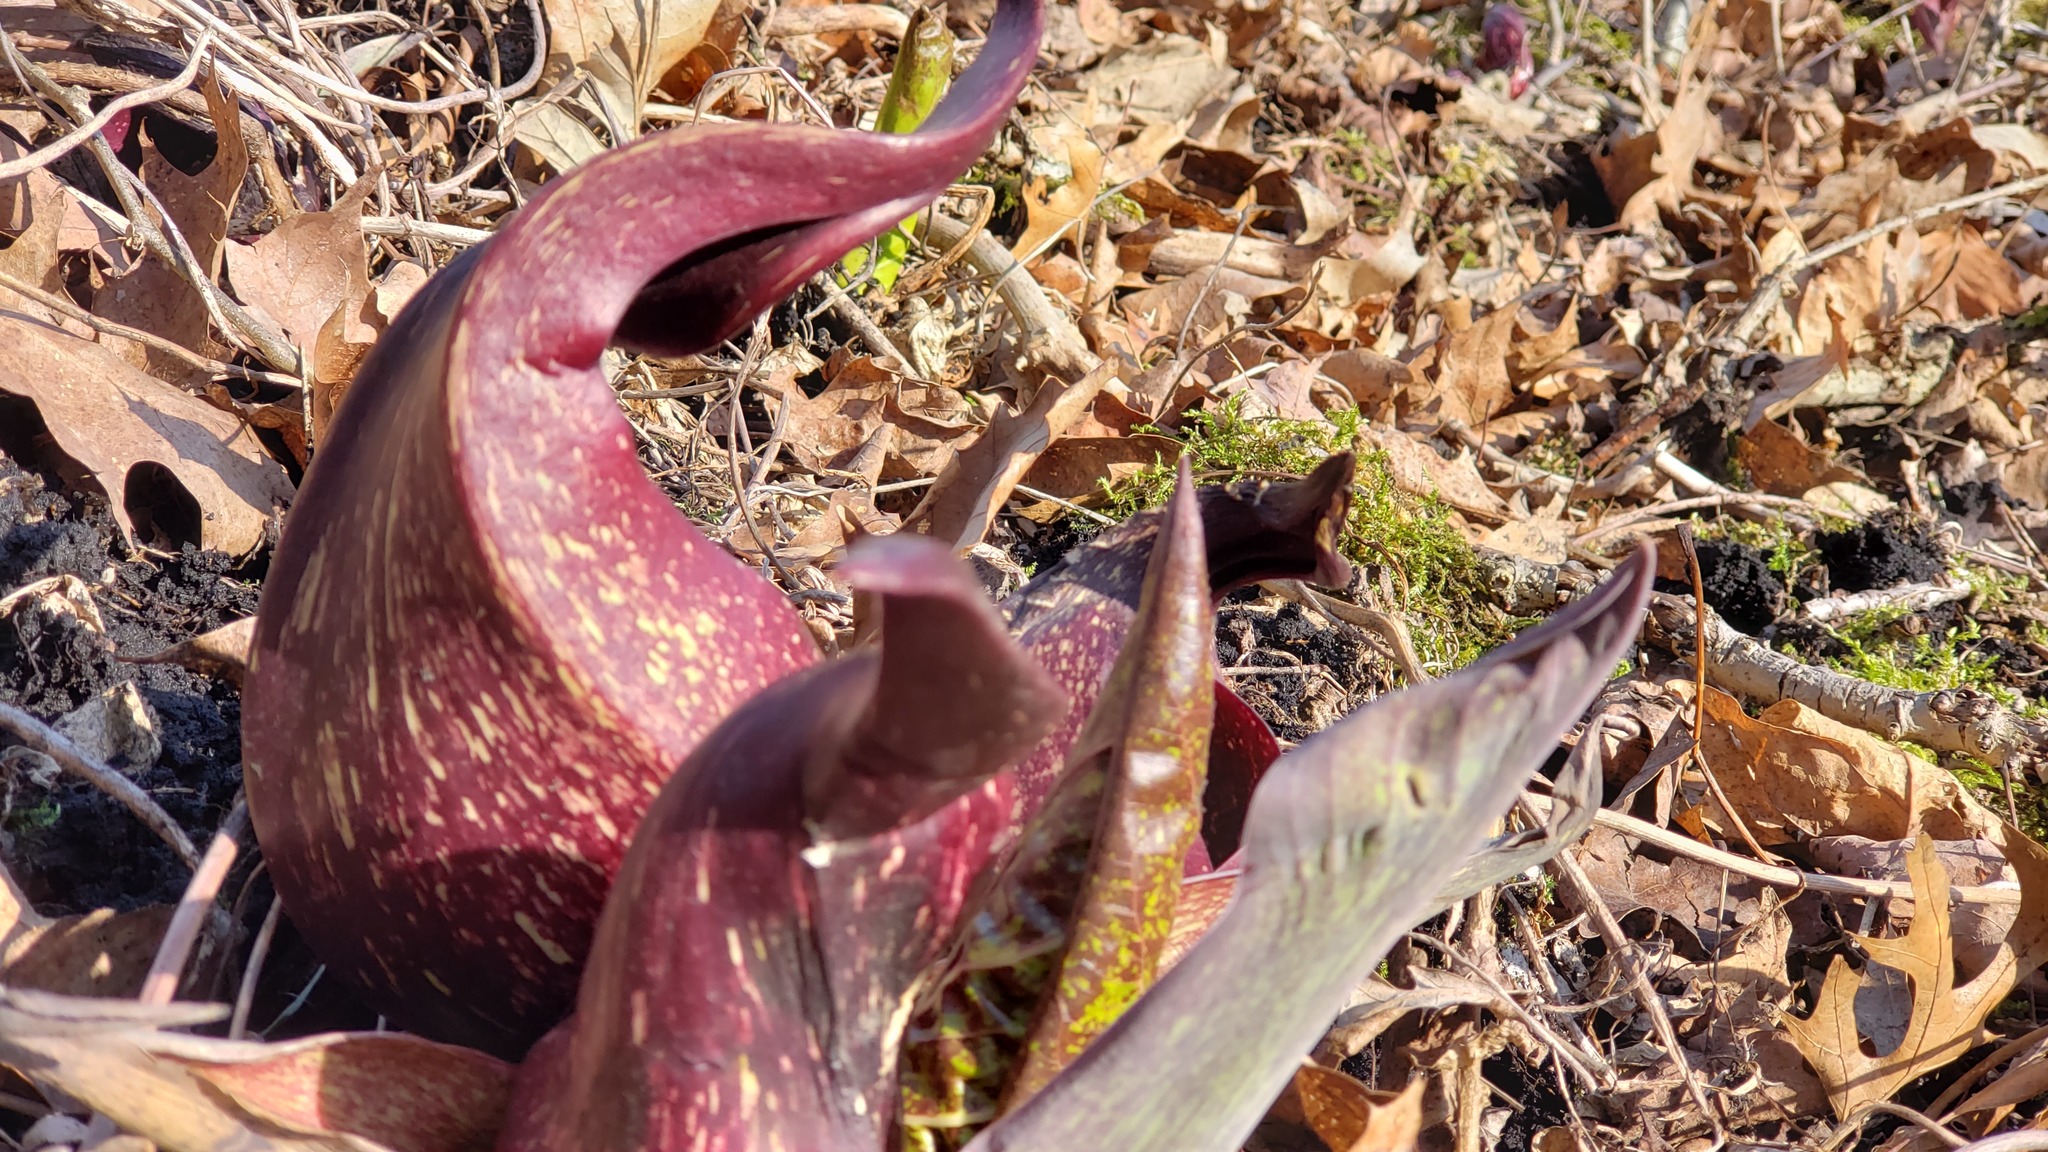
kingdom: Plantae
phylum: Tracheophyta
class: Liliopsida
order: Alismatales
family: Araceae
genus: Symplocarpus
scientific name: Symplocarpus foetidus
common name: Eastern skunk cabbage
